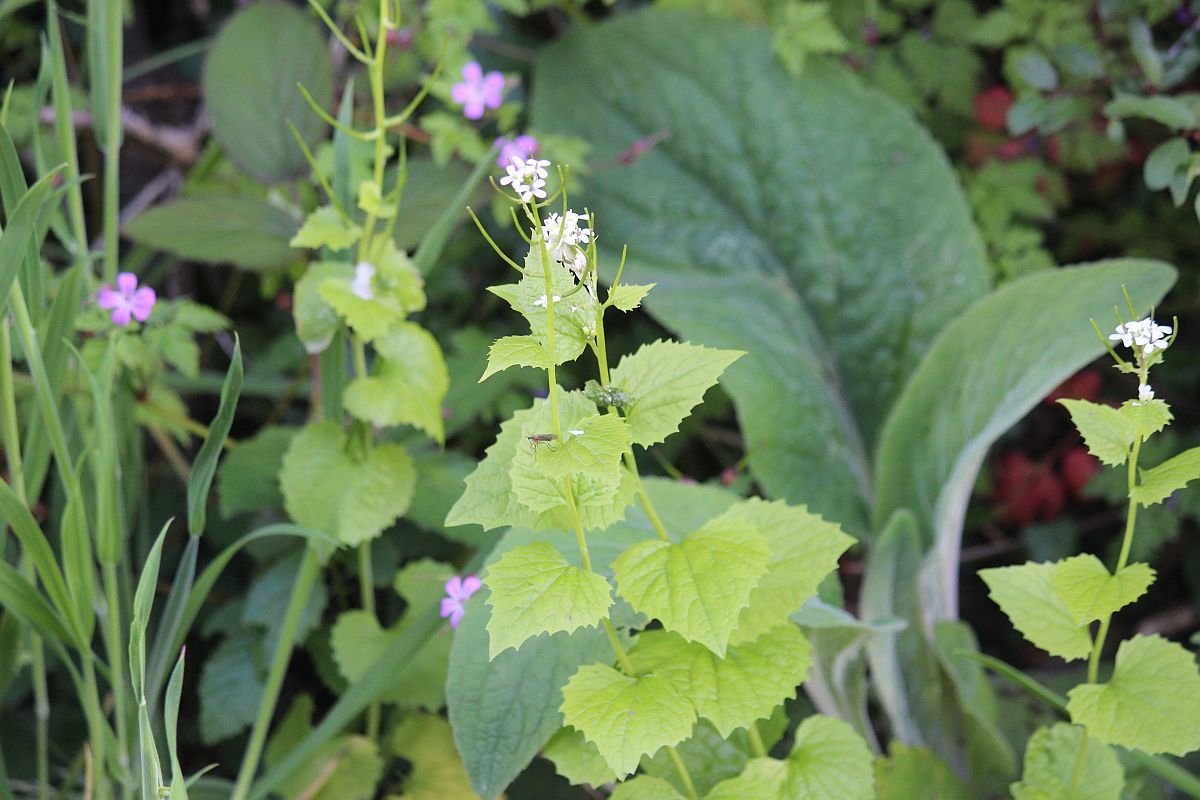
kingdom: Plantae
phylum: Tracheophyta
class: Magnoliopsida
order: Brassicales
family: Brassicaceae
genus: Alliaria
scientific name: Alliaria petiolata
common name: Garlic mustard
